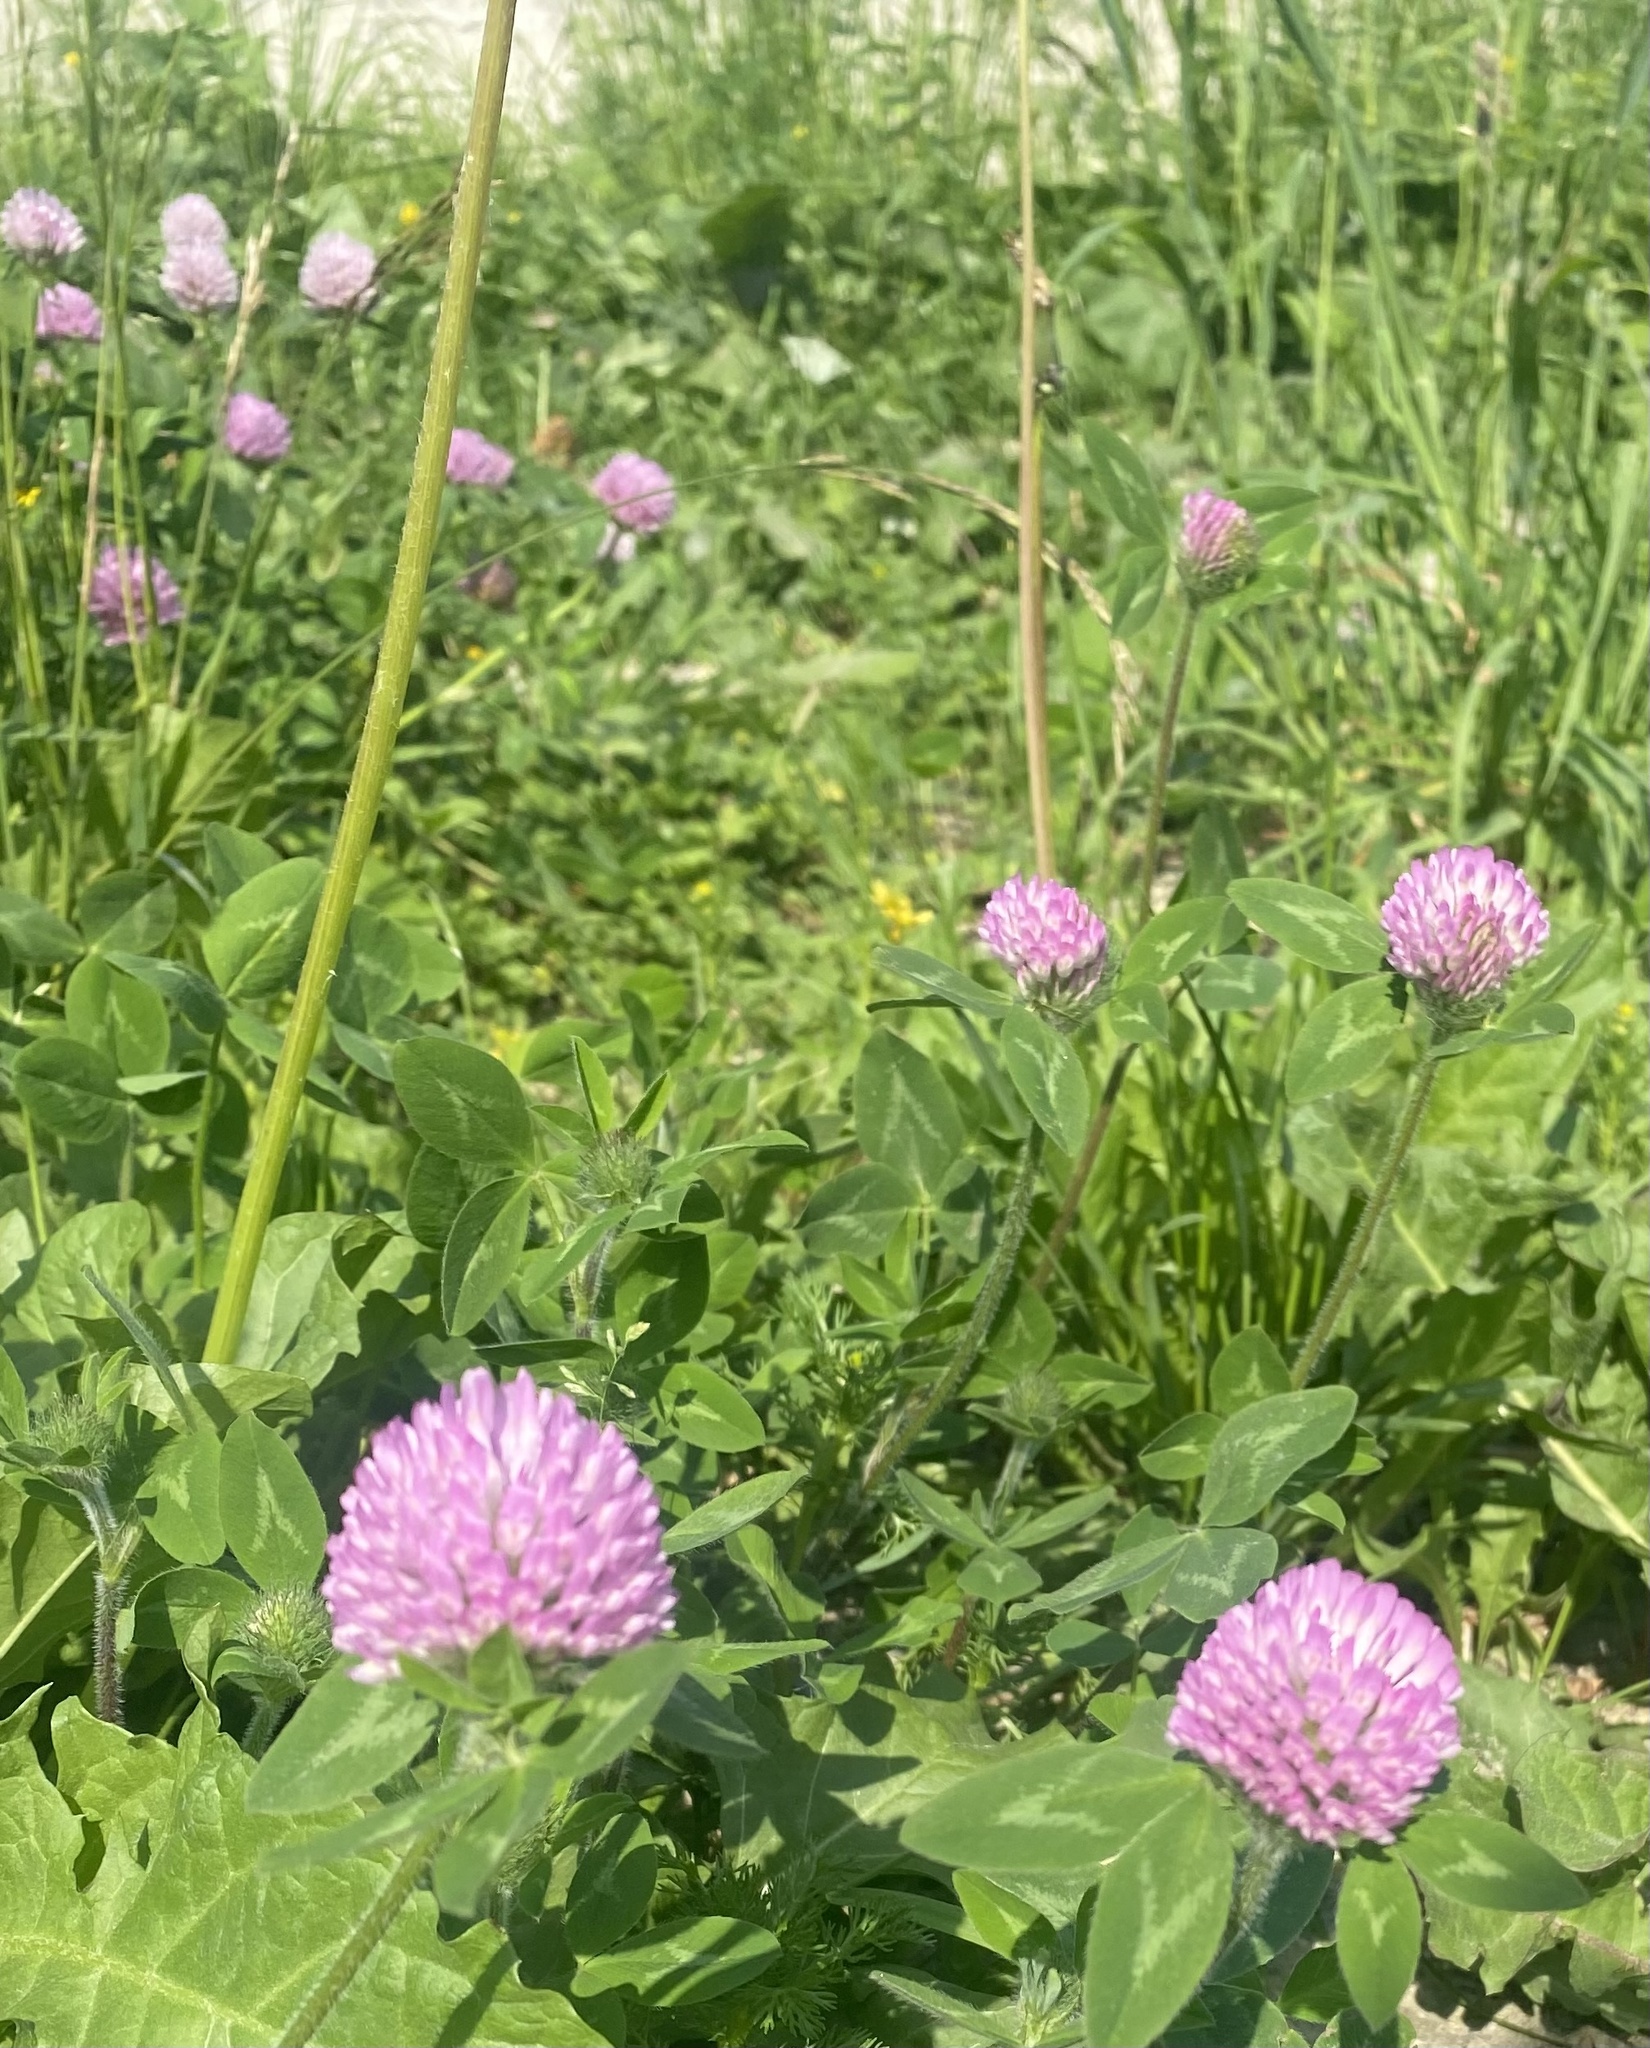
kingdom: Plantae
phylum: Tracheophyta
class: Magnoliopsida
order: Fabales
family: Fabaceae
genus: Trifolium
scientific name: Trifolium pratense
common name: Red clover
